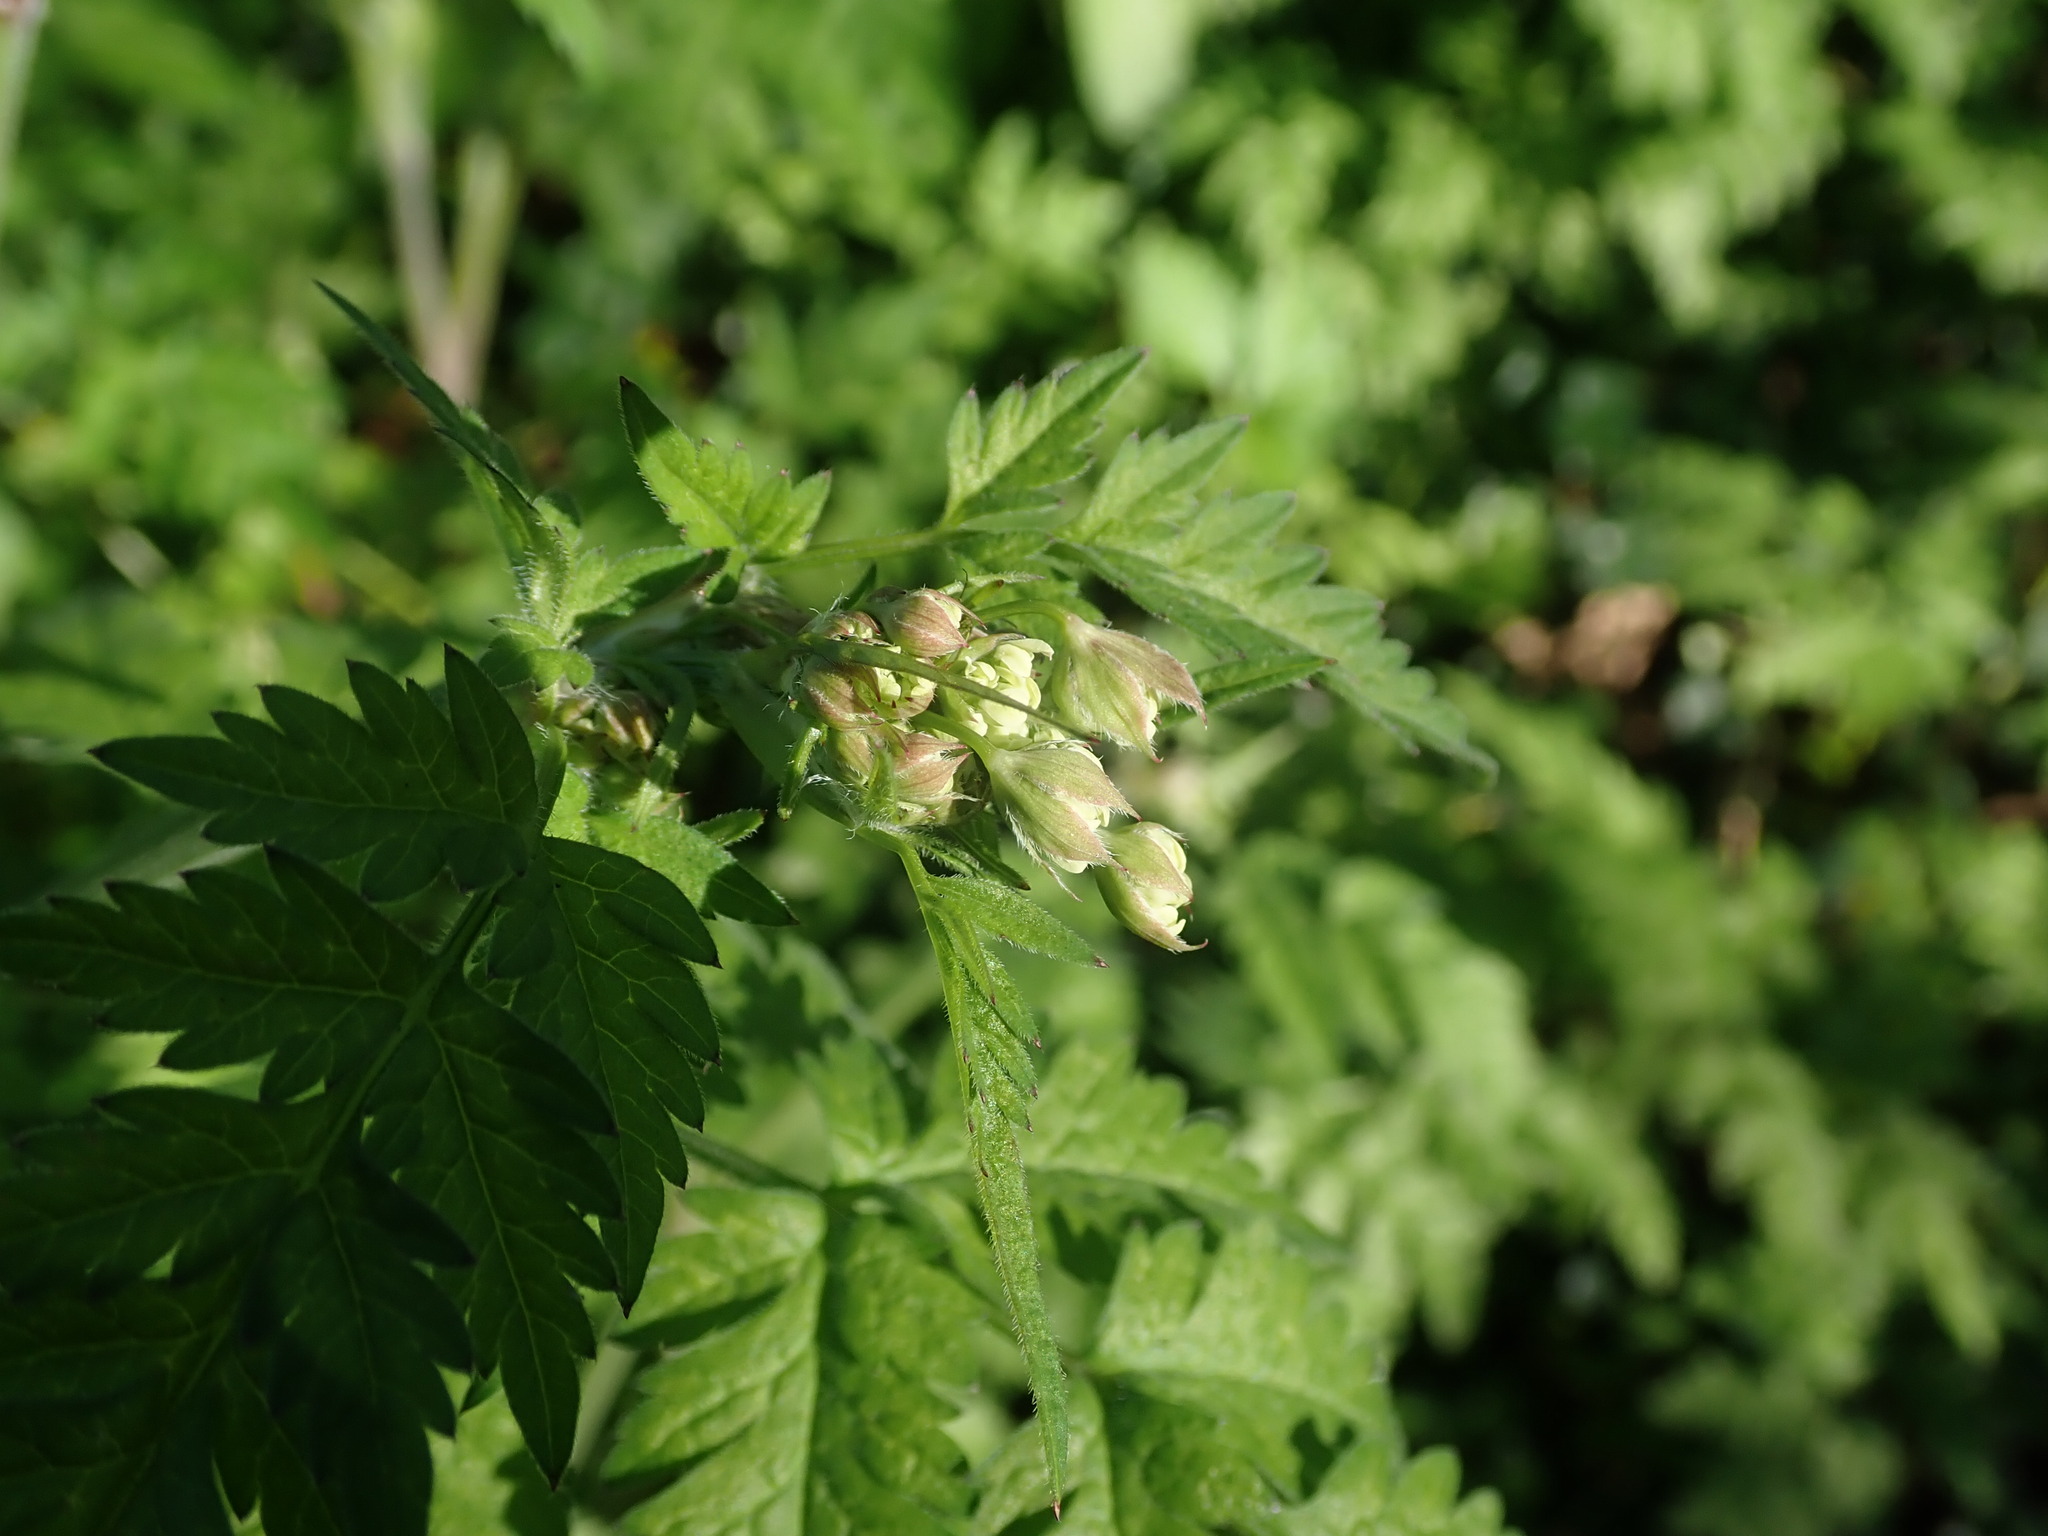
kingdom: Plantae
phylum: Tracheophyta
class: Magnoliopsida
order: Apiales
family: Apiaceae
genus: Anthriscus
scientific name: Anthriscus sylvestris
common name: Cow parsley
